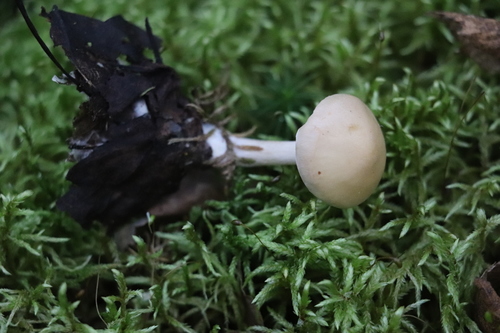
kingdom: Fungi
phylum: Basidiomycota
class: Agaricomycetes
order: Agaricales
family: Hymenogastraceae
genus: Hebeloma
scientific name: Hebeloma leucosarx
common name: Birch poisonpie
